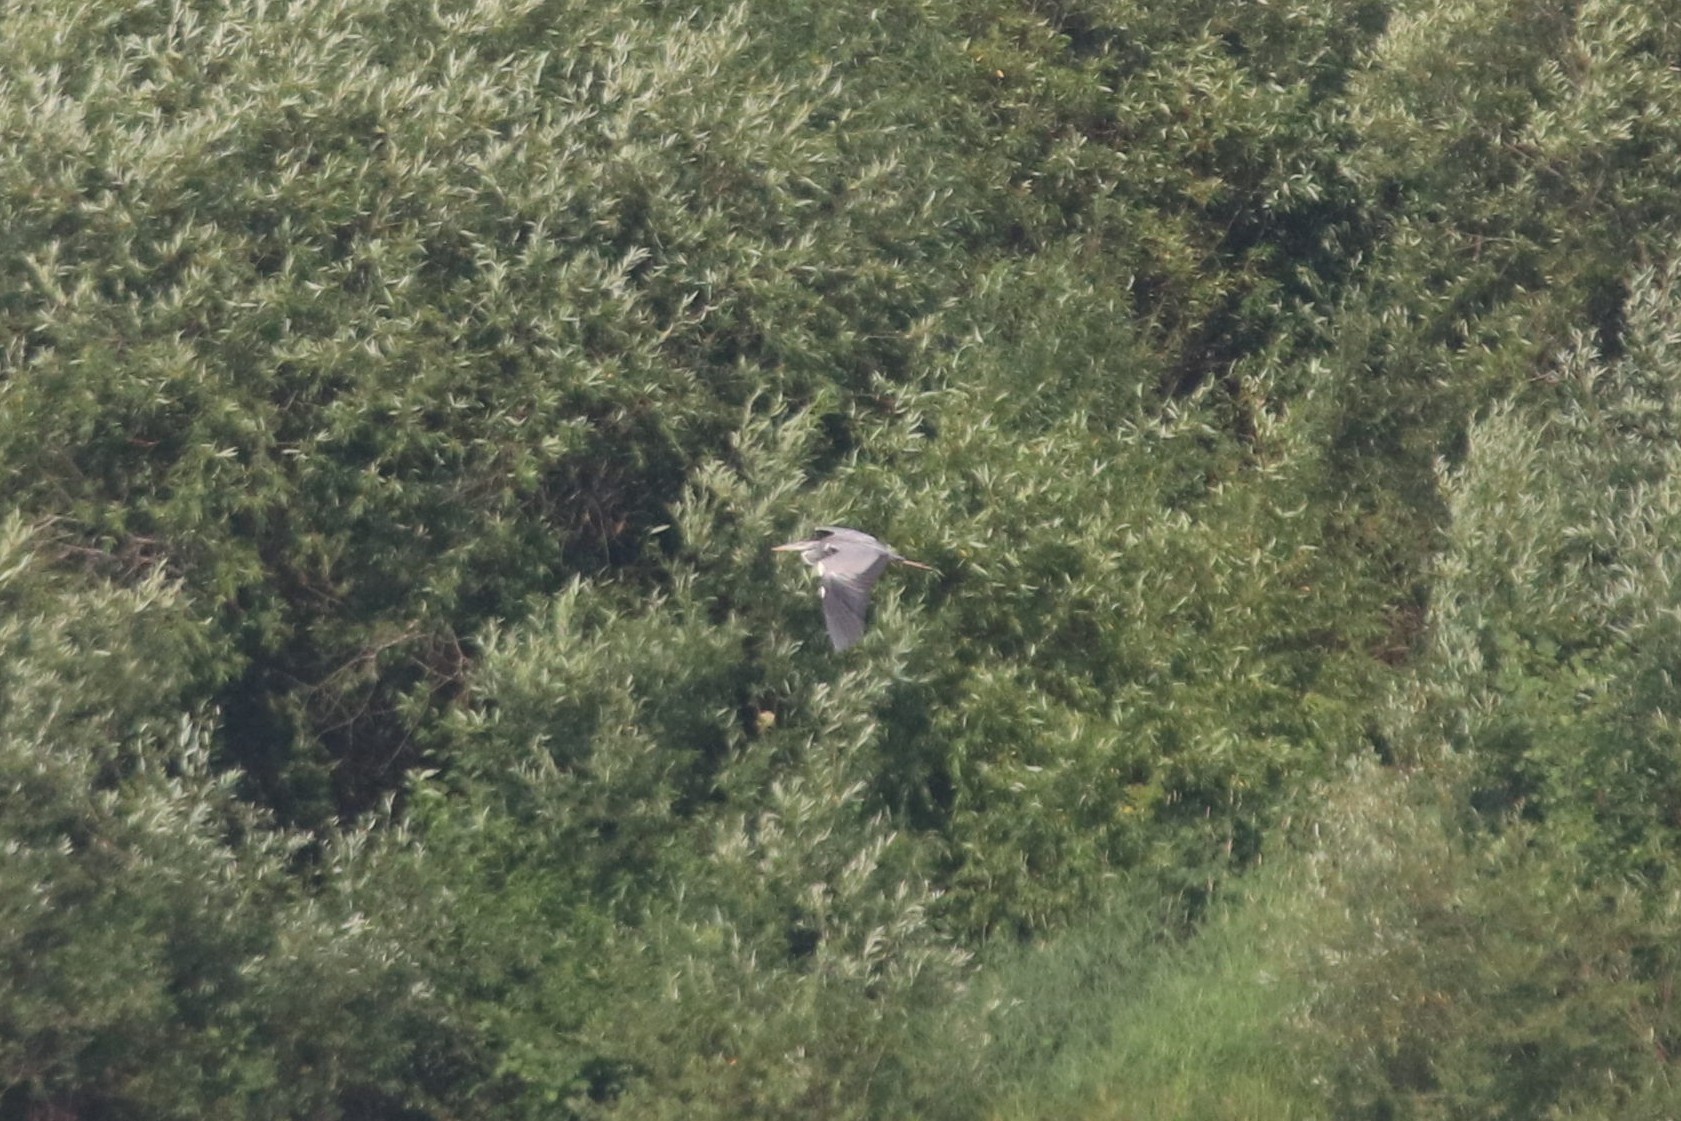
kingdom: Animalia
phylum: Chordata
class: Aves
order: Pelecaniformes
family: Ardeidae
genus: Ardea
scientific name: Ardea cinerea
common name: Grey heron
